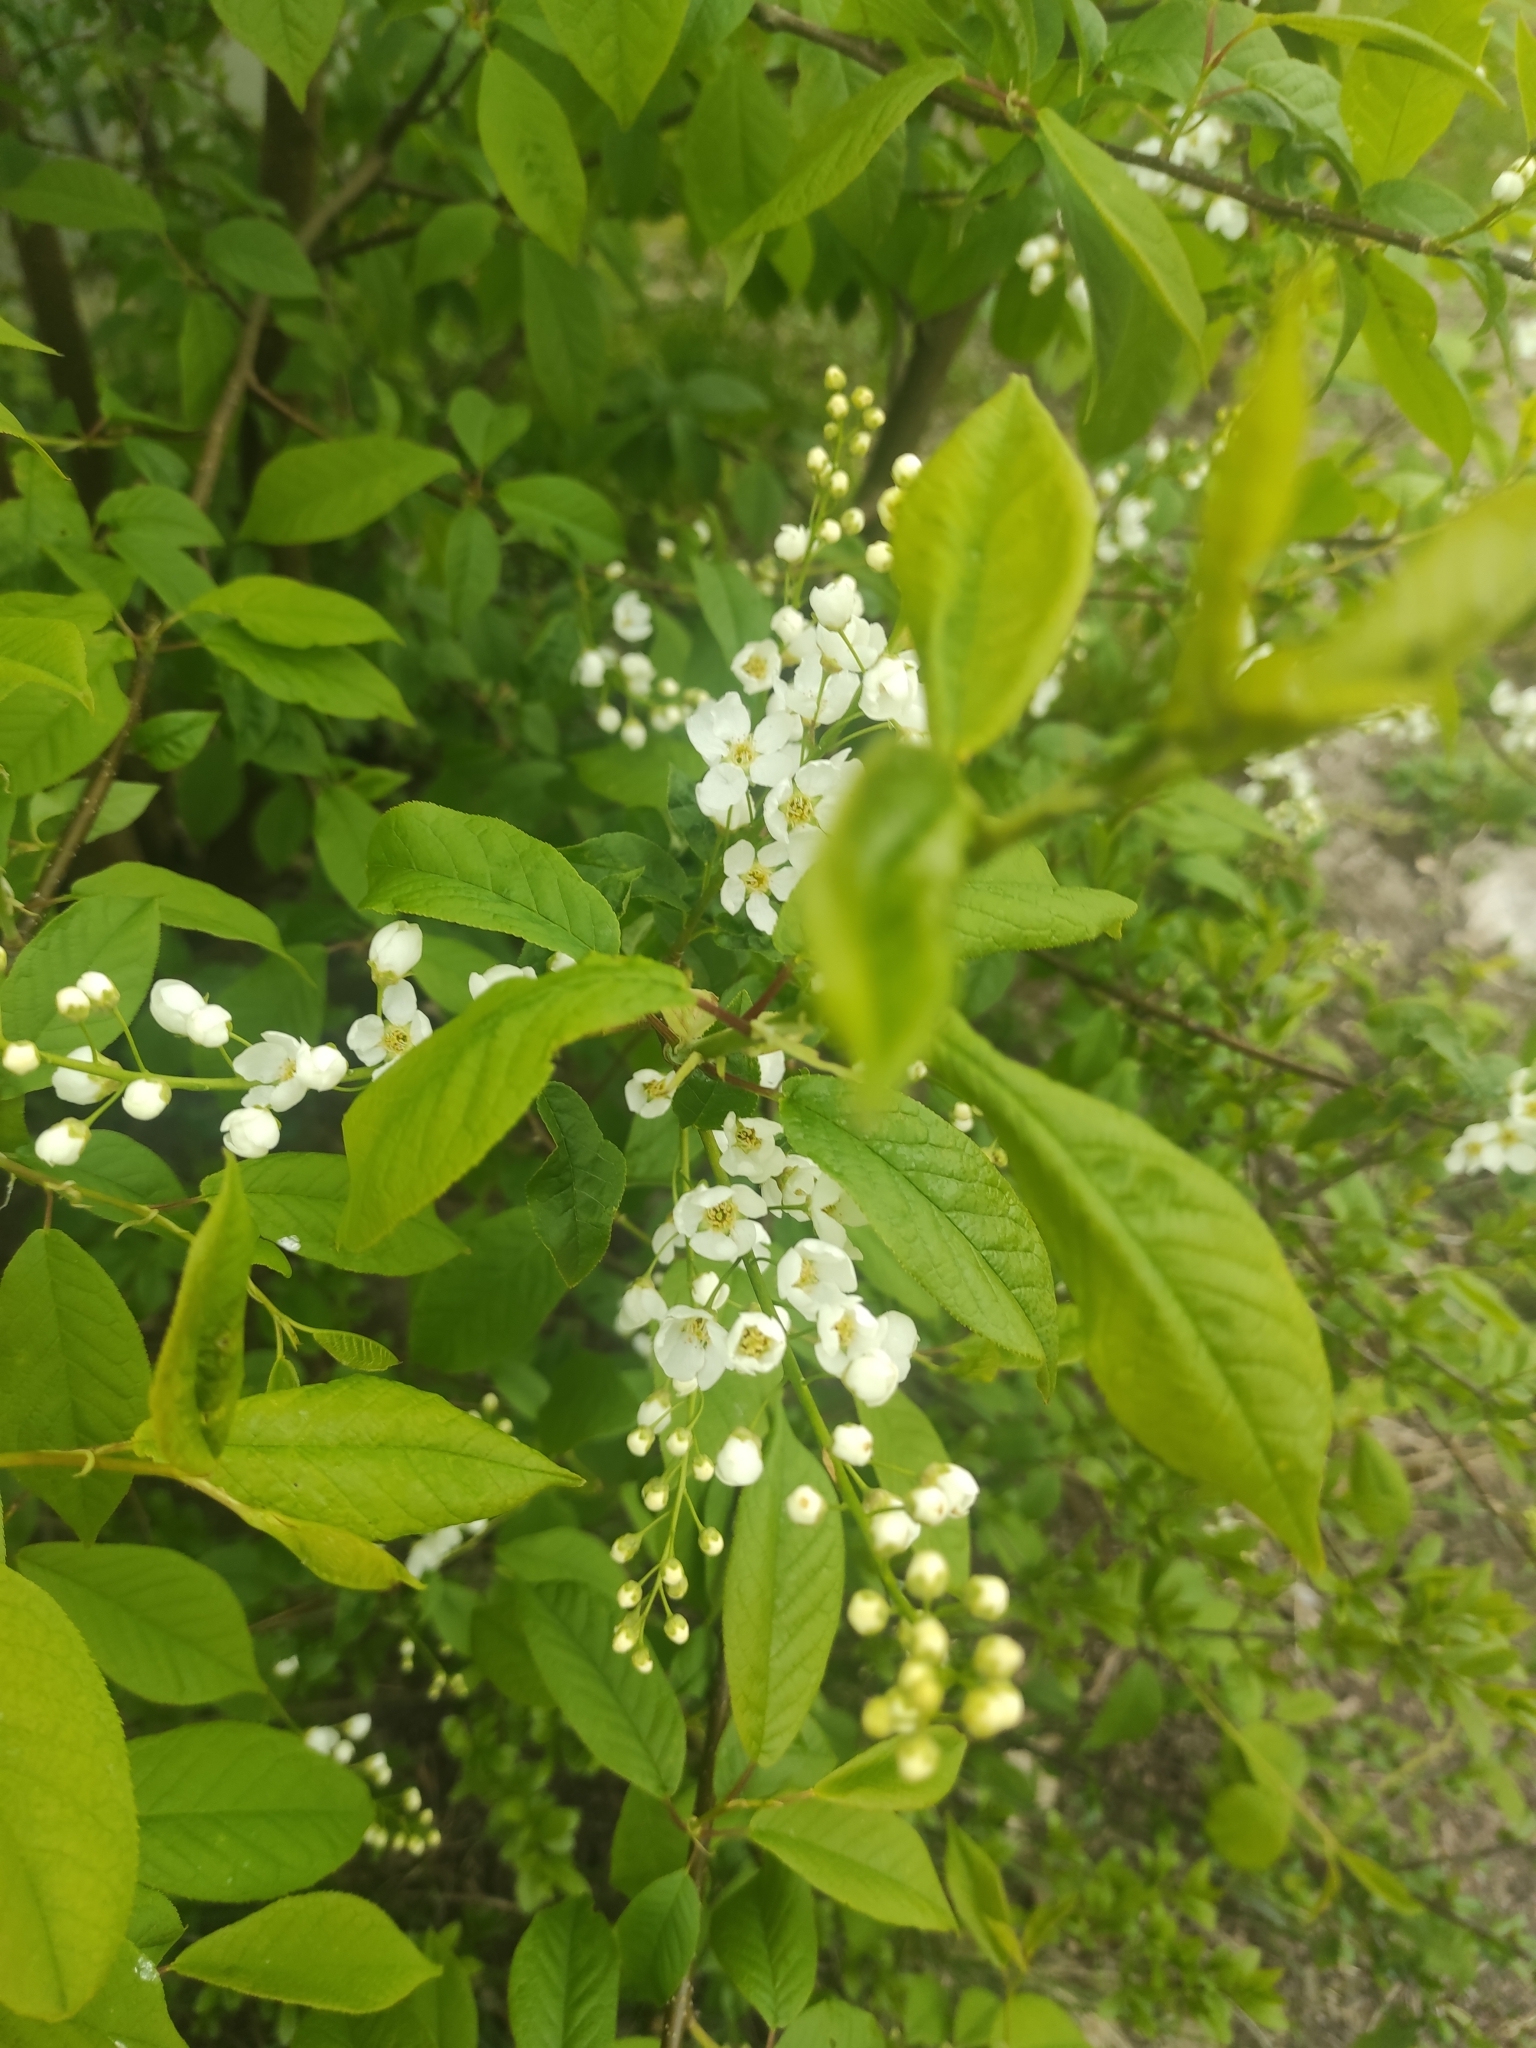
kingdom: Plantae
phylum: Tracheophyta
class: Magnoliopsida
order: Rosales
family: Rosaceae
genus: Prunus
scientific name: Prunus padus
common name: Bird cherry
